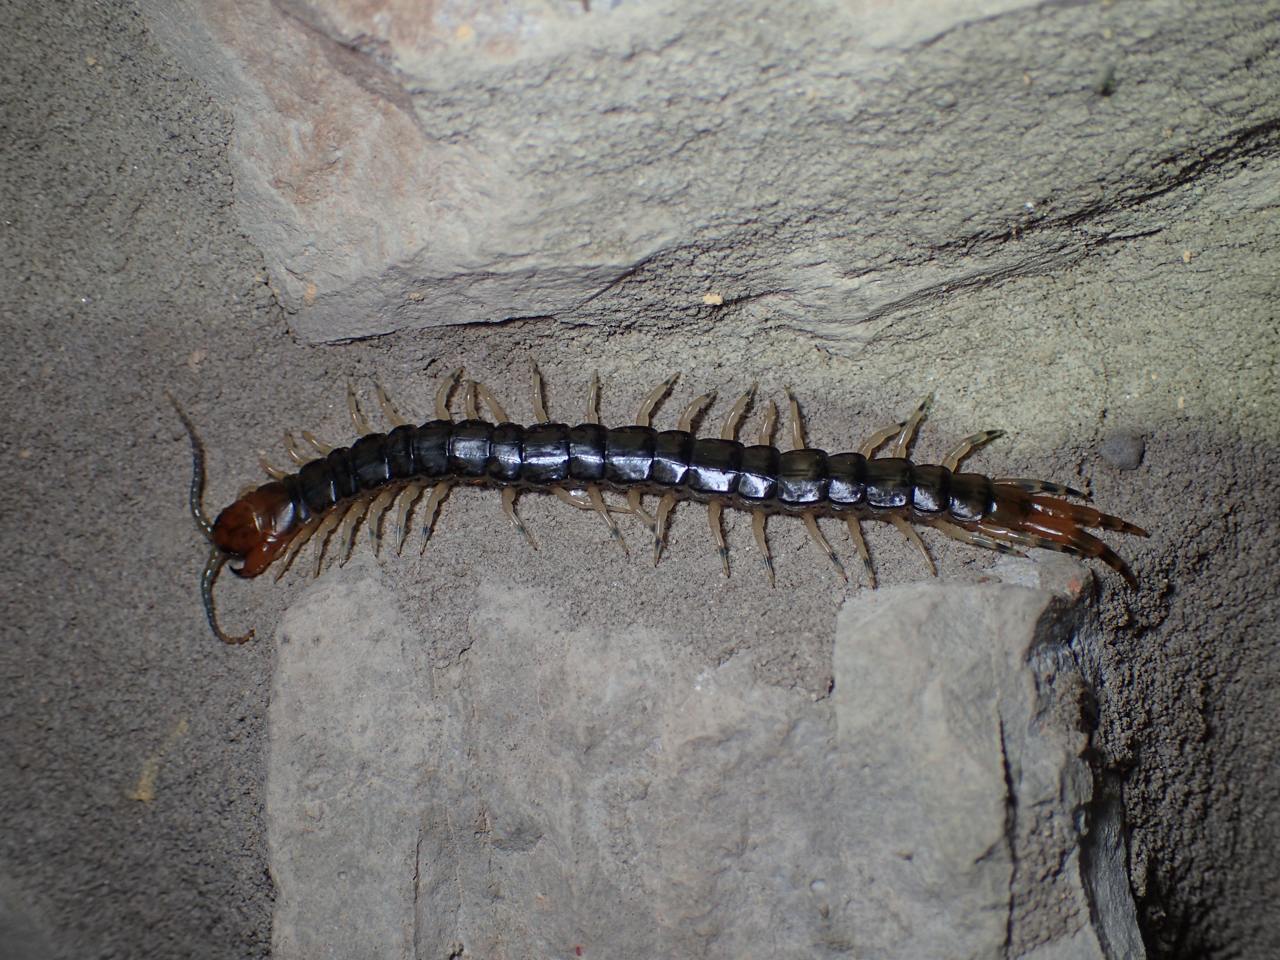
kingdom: Animalia
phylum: Arthropoda
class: Chilopoda
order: Scolopendromorpha
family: Scolopendridae
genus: Hemiscolopendra
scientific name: Hemiscolopendra marginata
